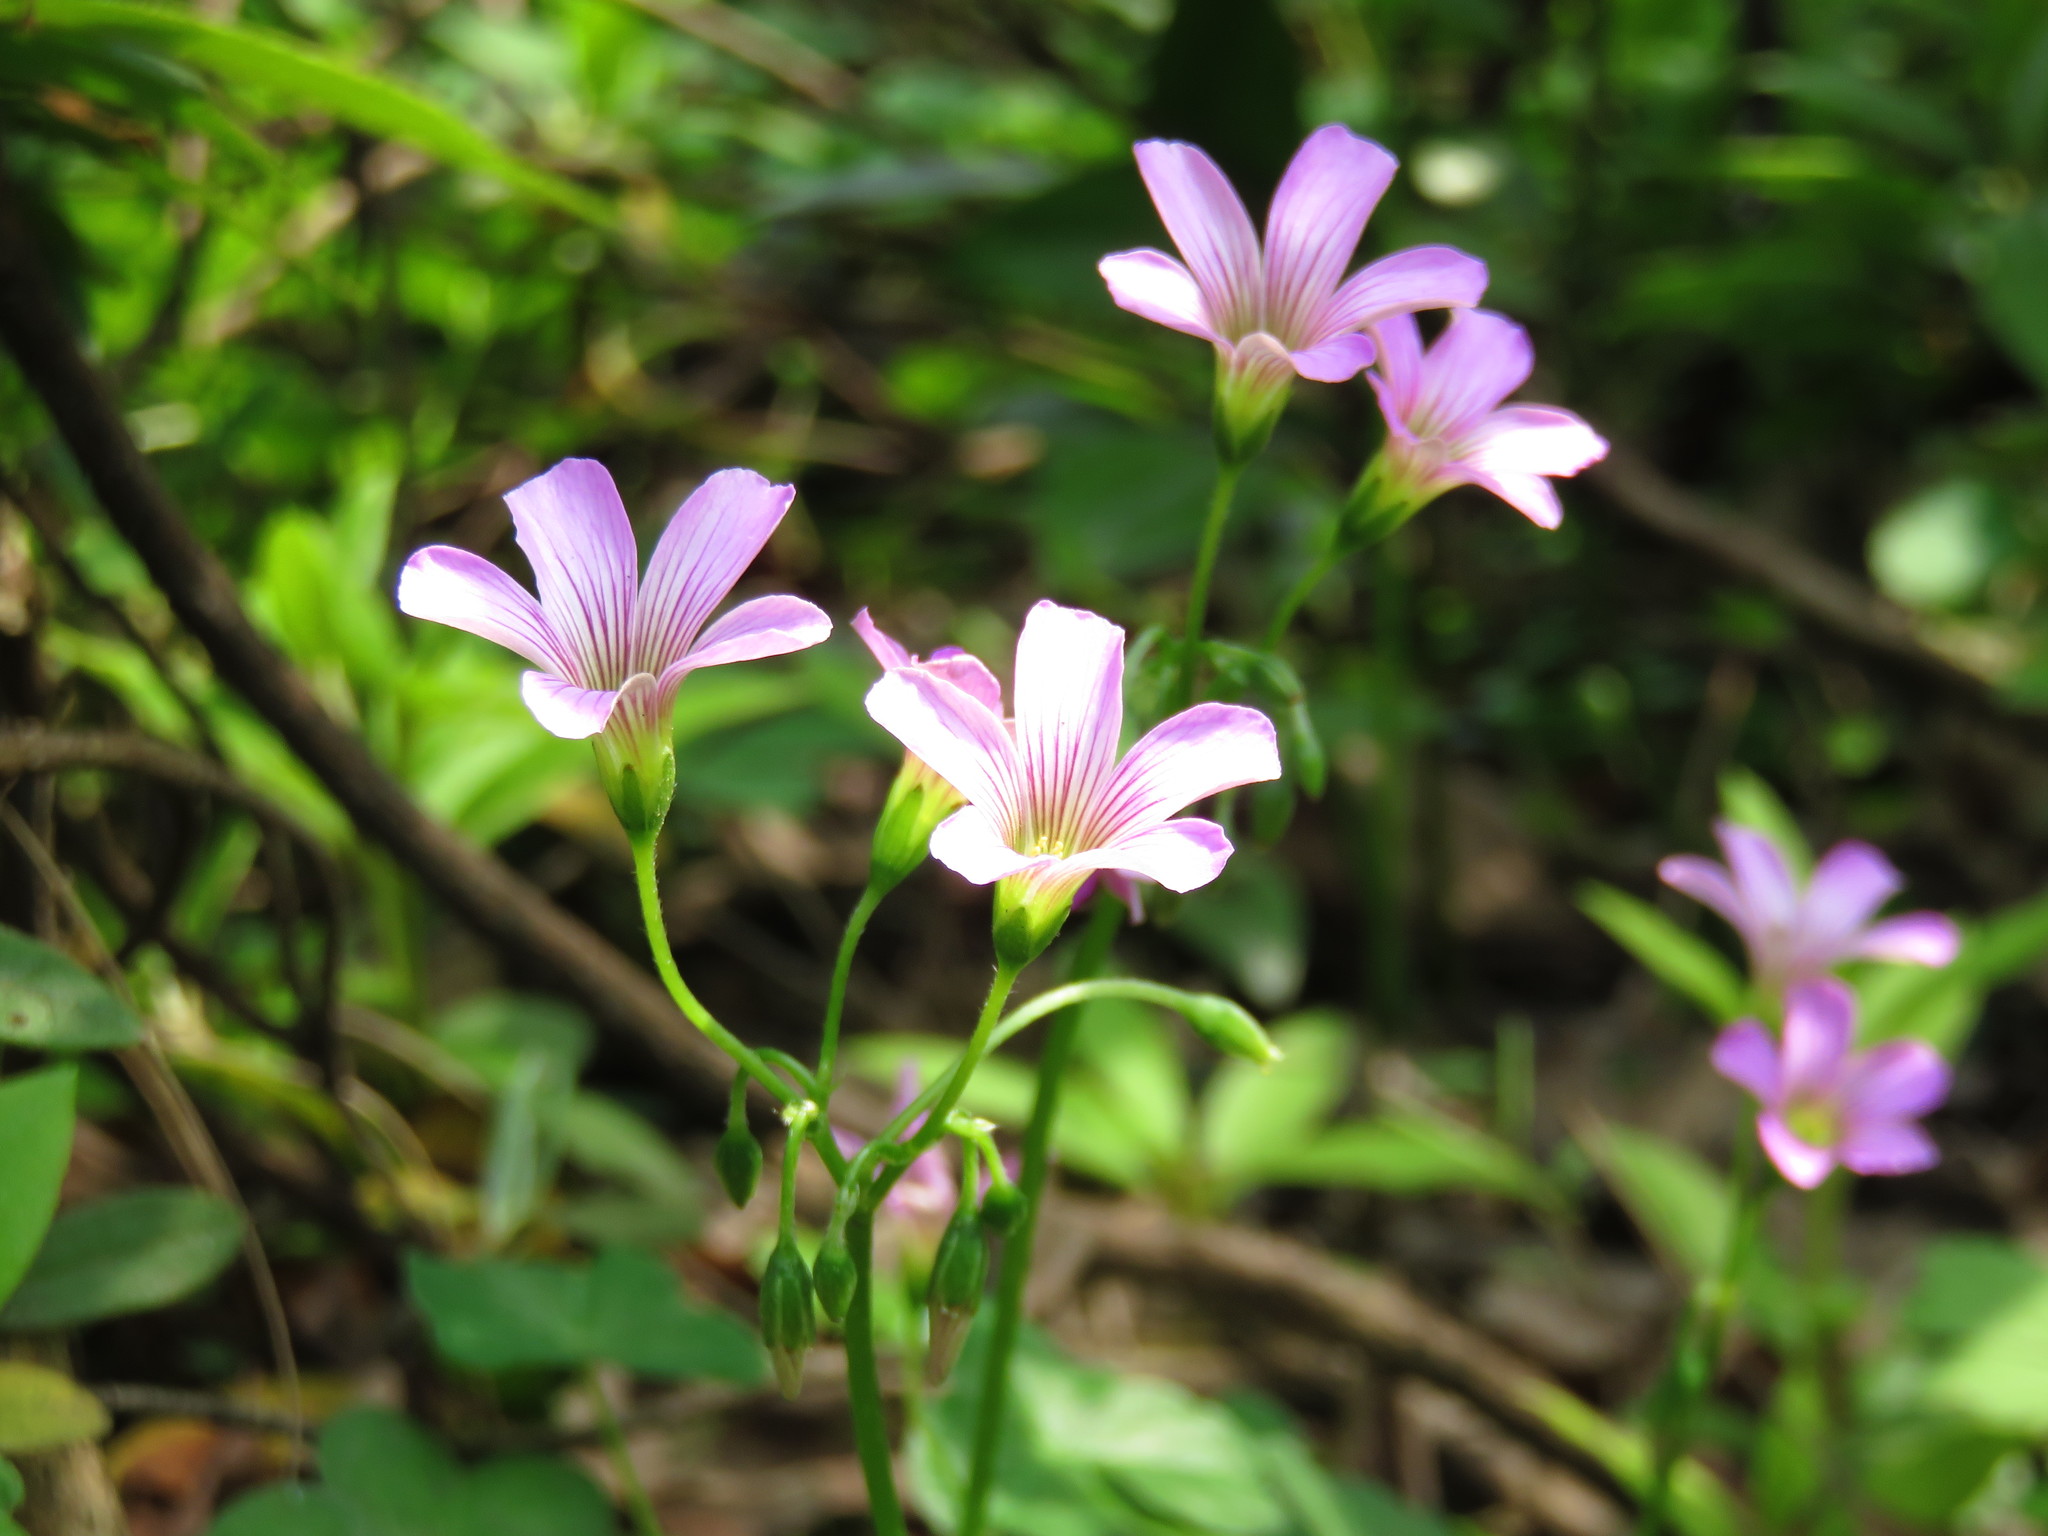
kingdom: Plantae
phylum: Tracheophyta
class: Magnoliopsida
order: Oxalidales
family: Oxalidaceae
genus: Oxalis
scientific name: Oxalis debilis
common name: Large-flowered pink-sorrel
